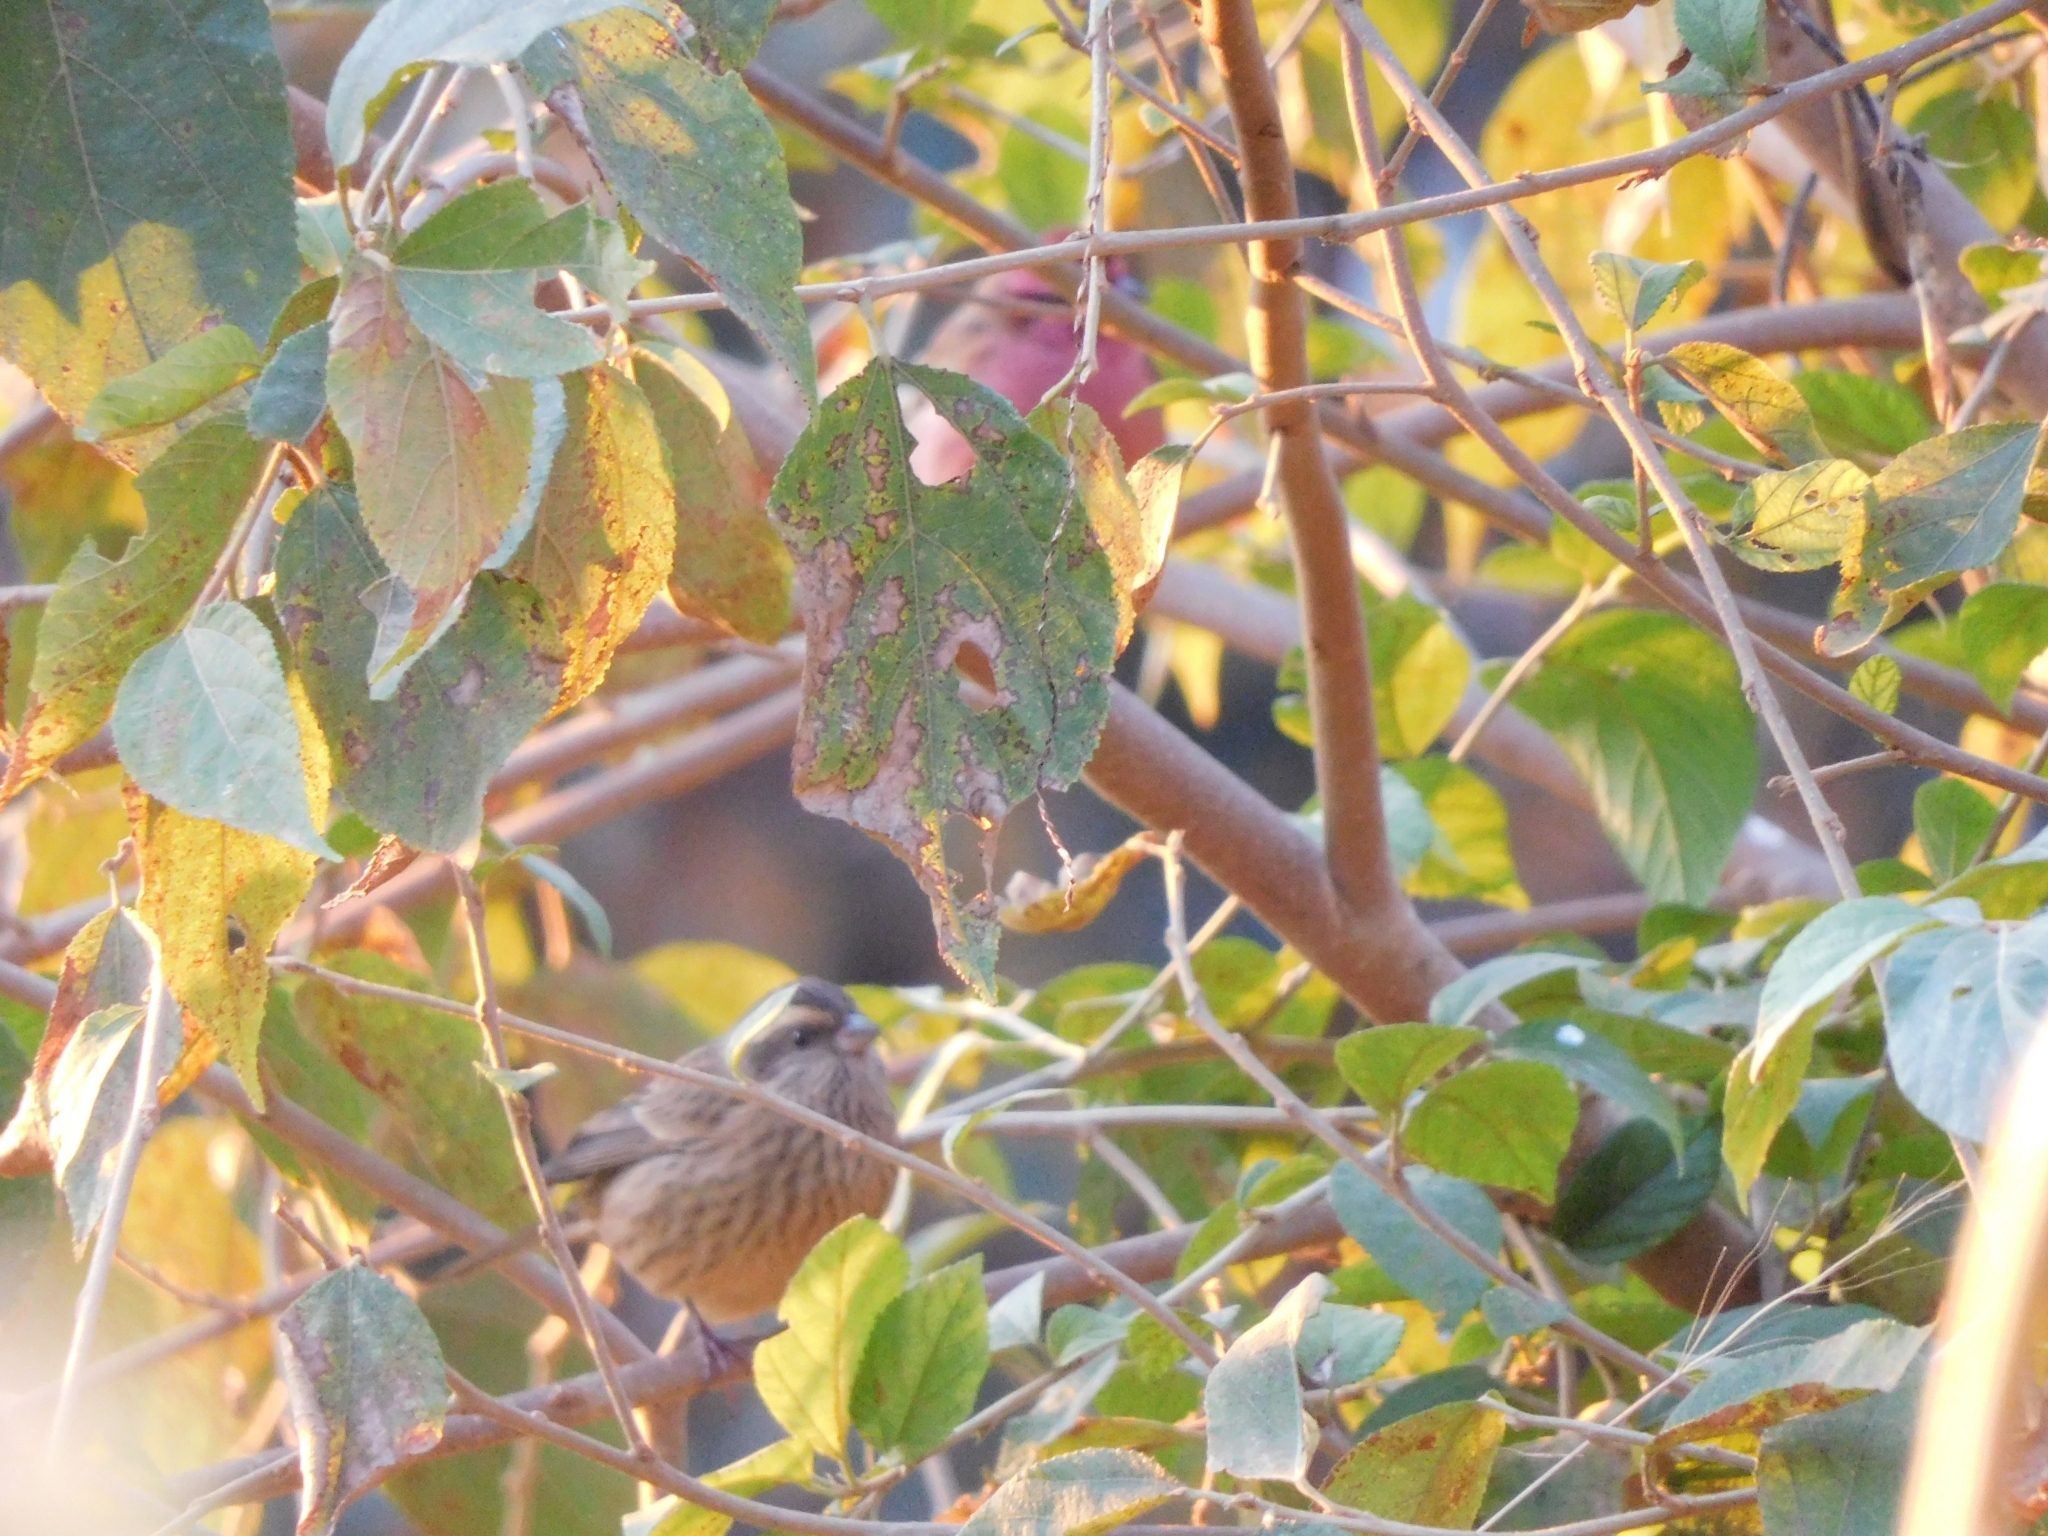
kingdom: Animalia
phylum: Chordata
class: Aves
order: Passeriformes
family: Fringillidae
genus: Carpodacus
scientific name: Carpodacus rodochroa
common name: Pink-browed rosefinch
